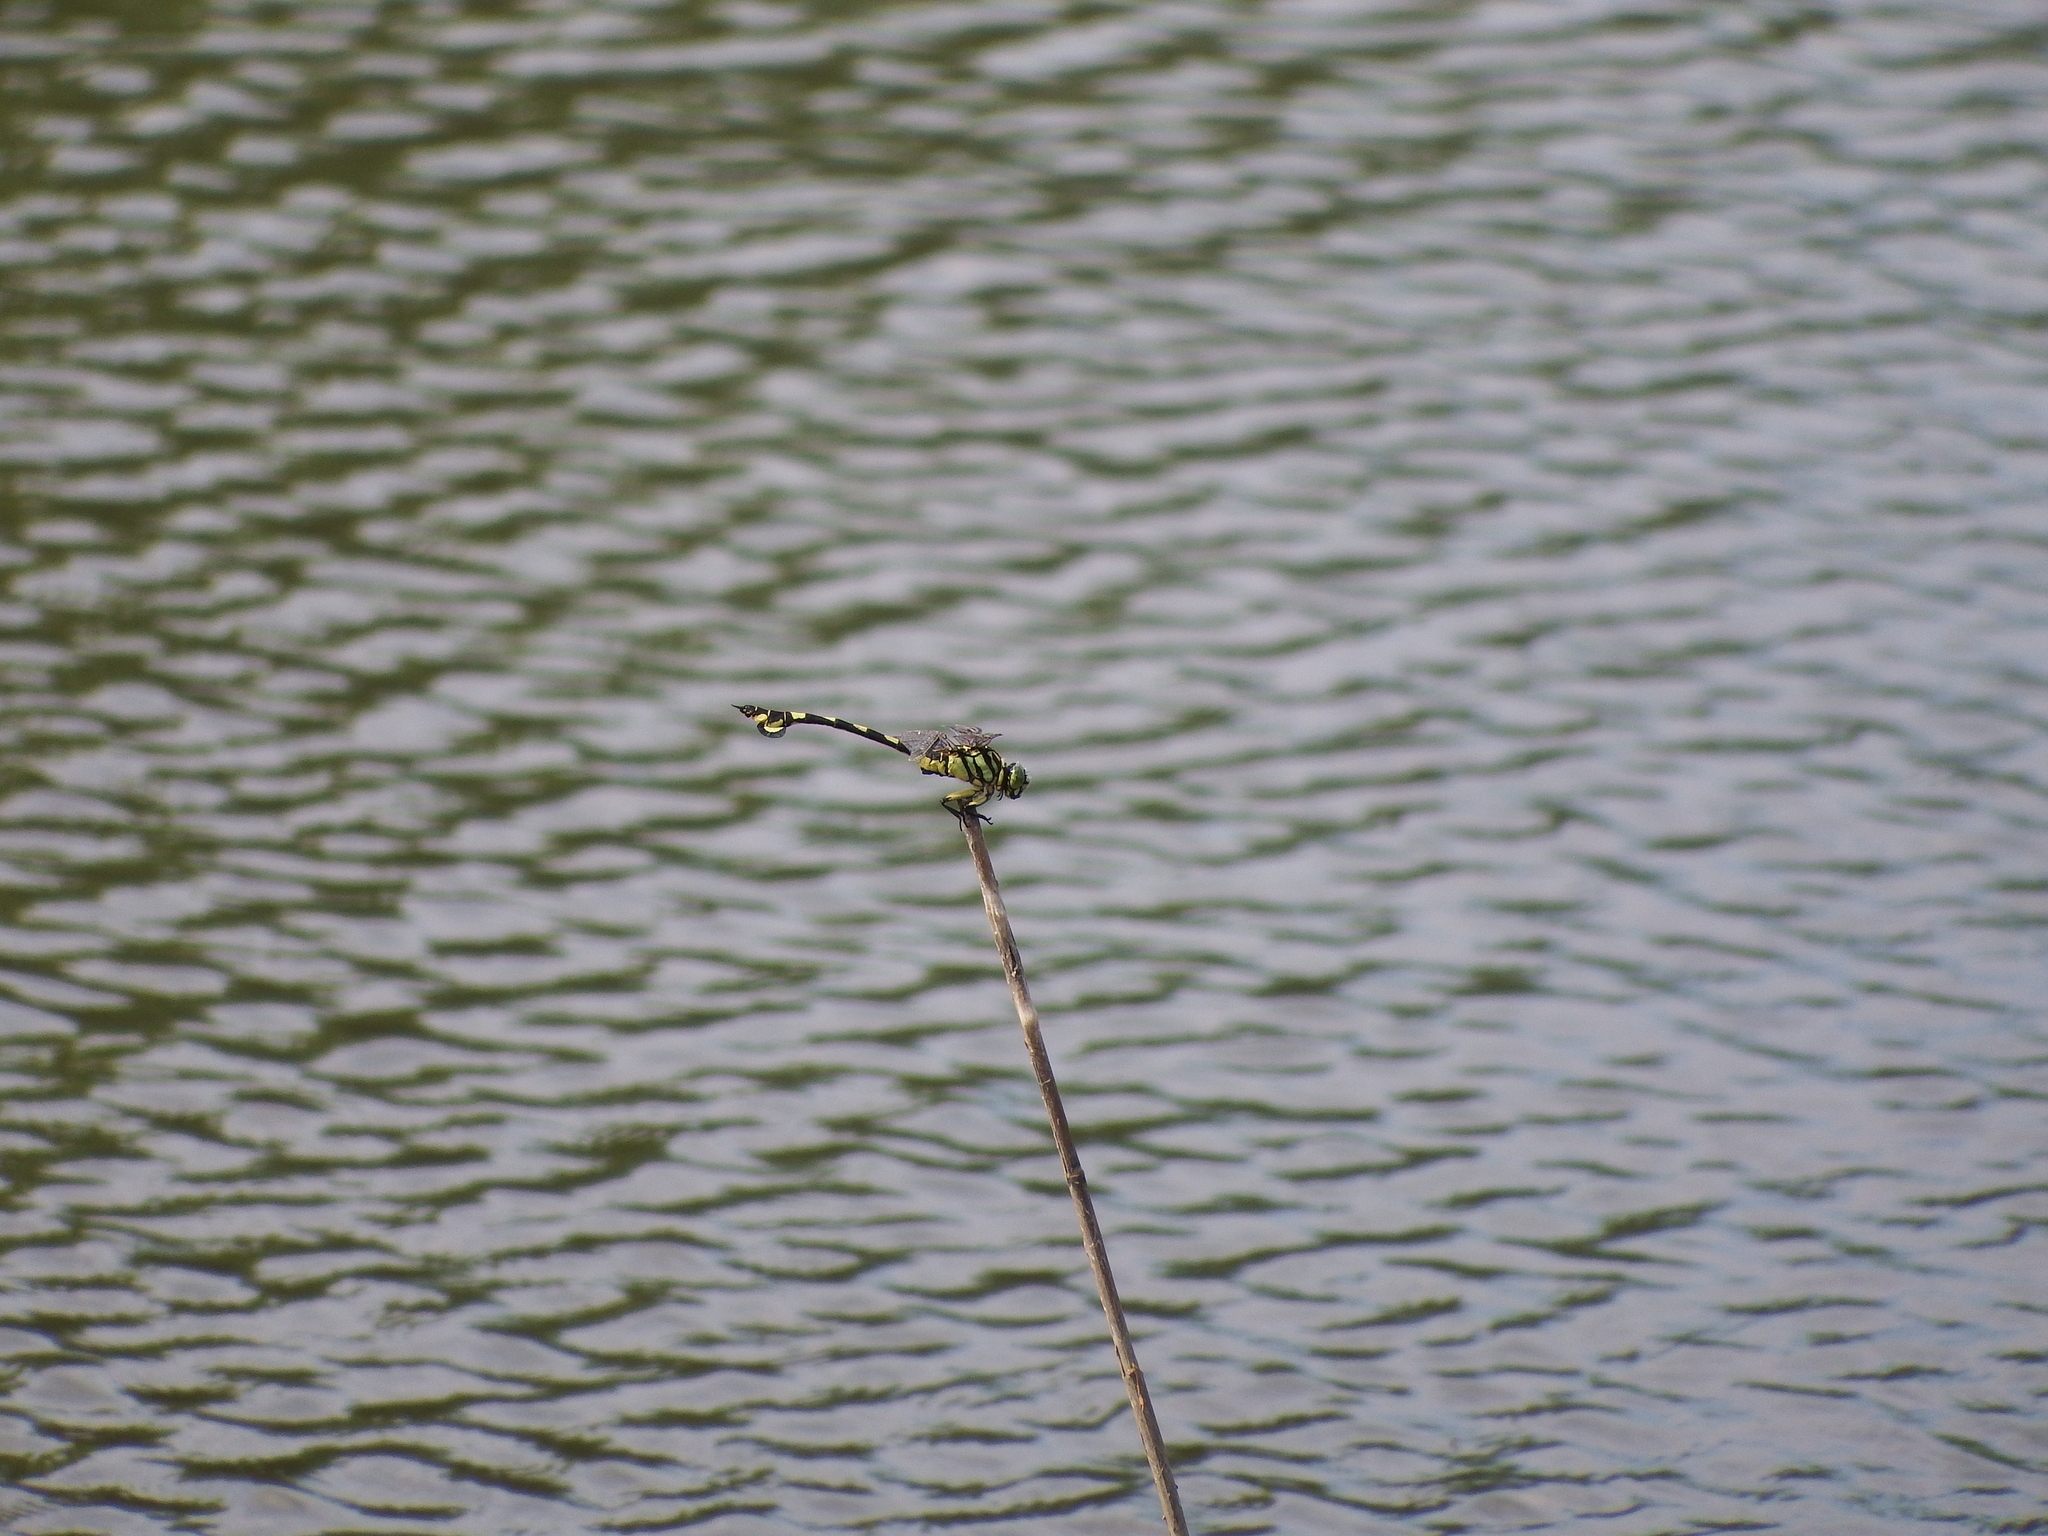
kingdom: Animalia
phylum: Arthropoda
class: Insecta
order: Odonata
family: Gomphidae
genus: Sinictinogomphus
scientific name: Sinictinogomphus clavatus
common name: Golden flangetail
